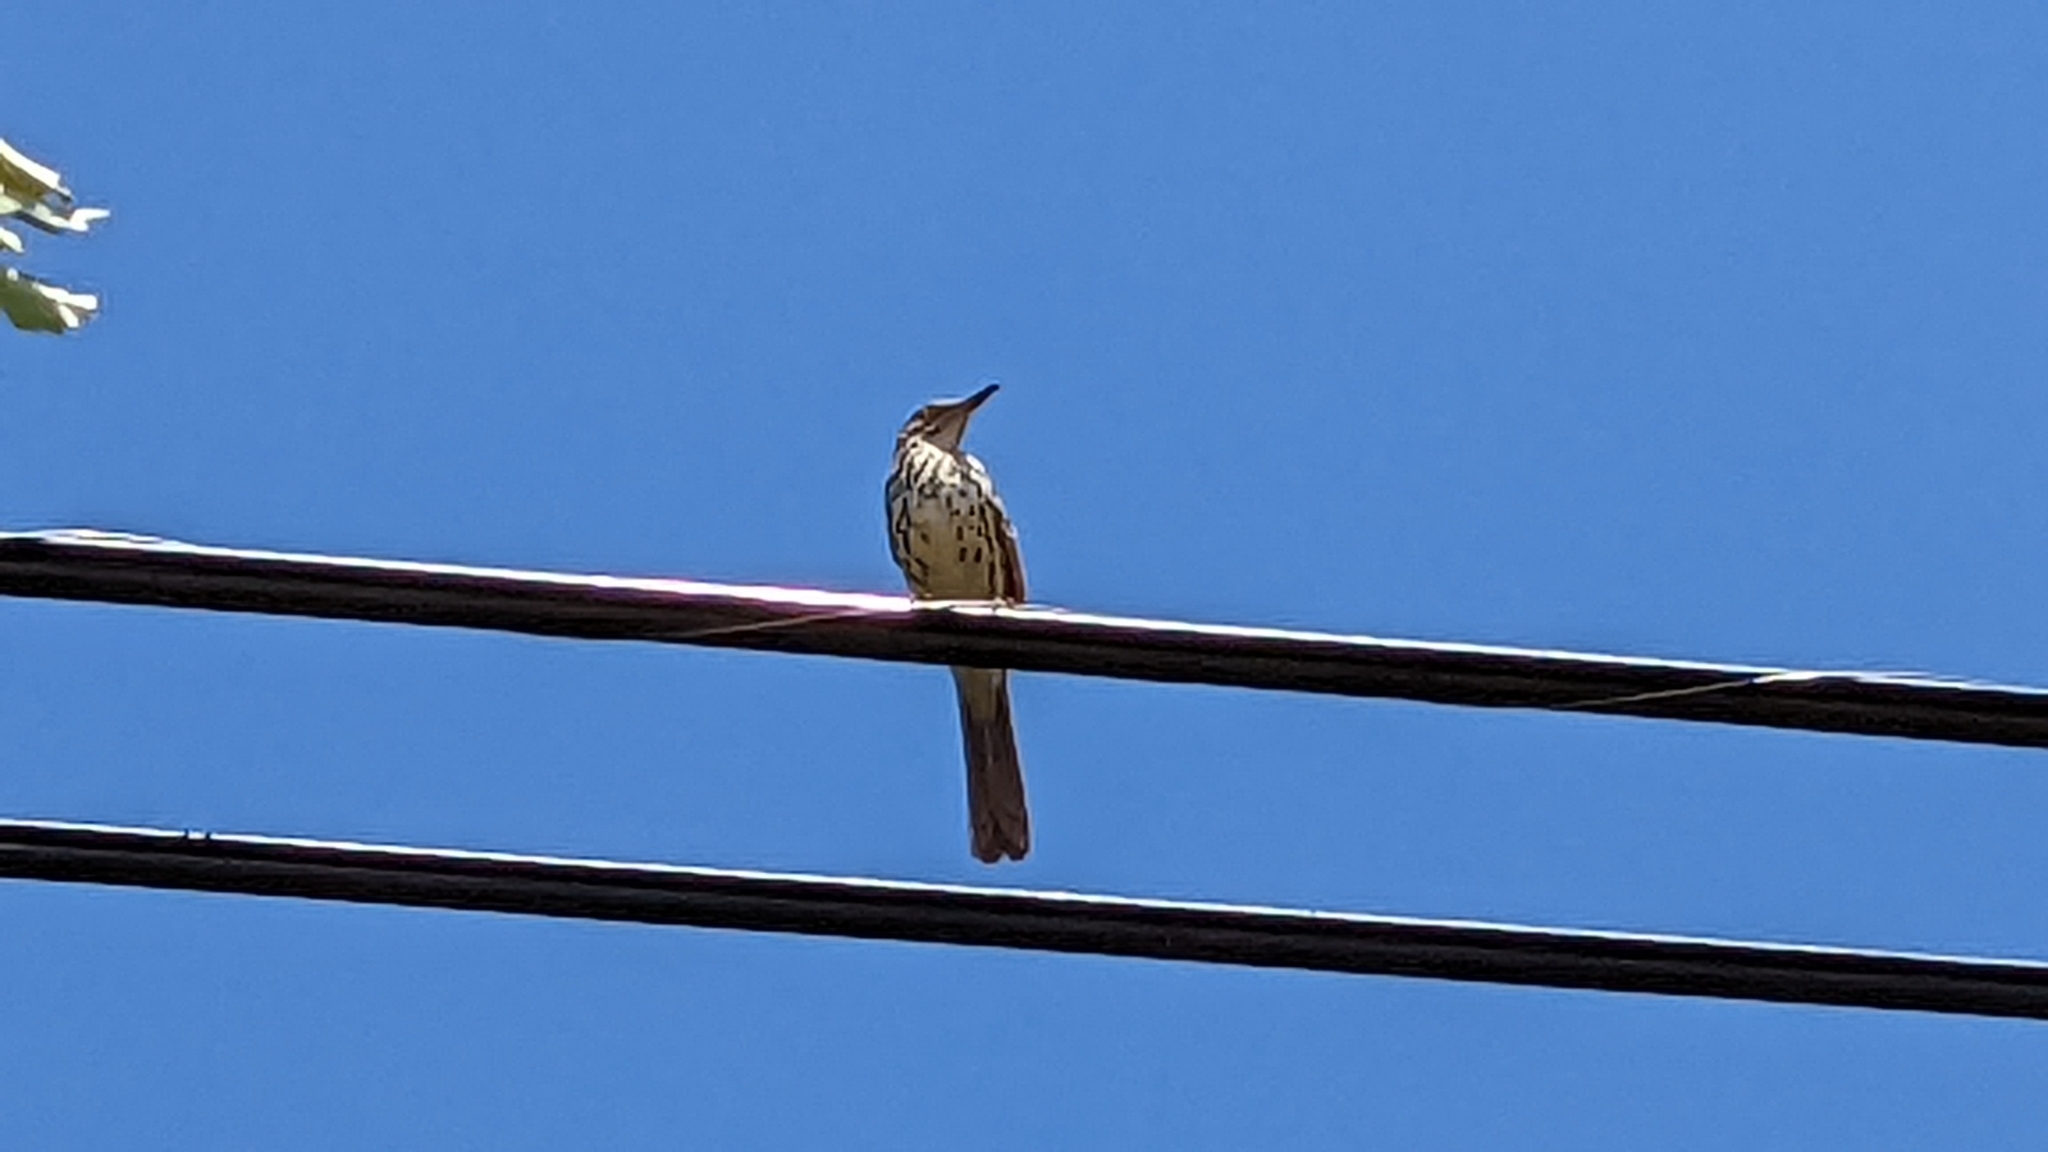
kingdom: Animalia
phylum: Chordata
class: Aves
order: Passeriformes
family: Mimidae
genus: Toxostoma
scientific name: Toxostoma rufum
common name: Brown thrasher
